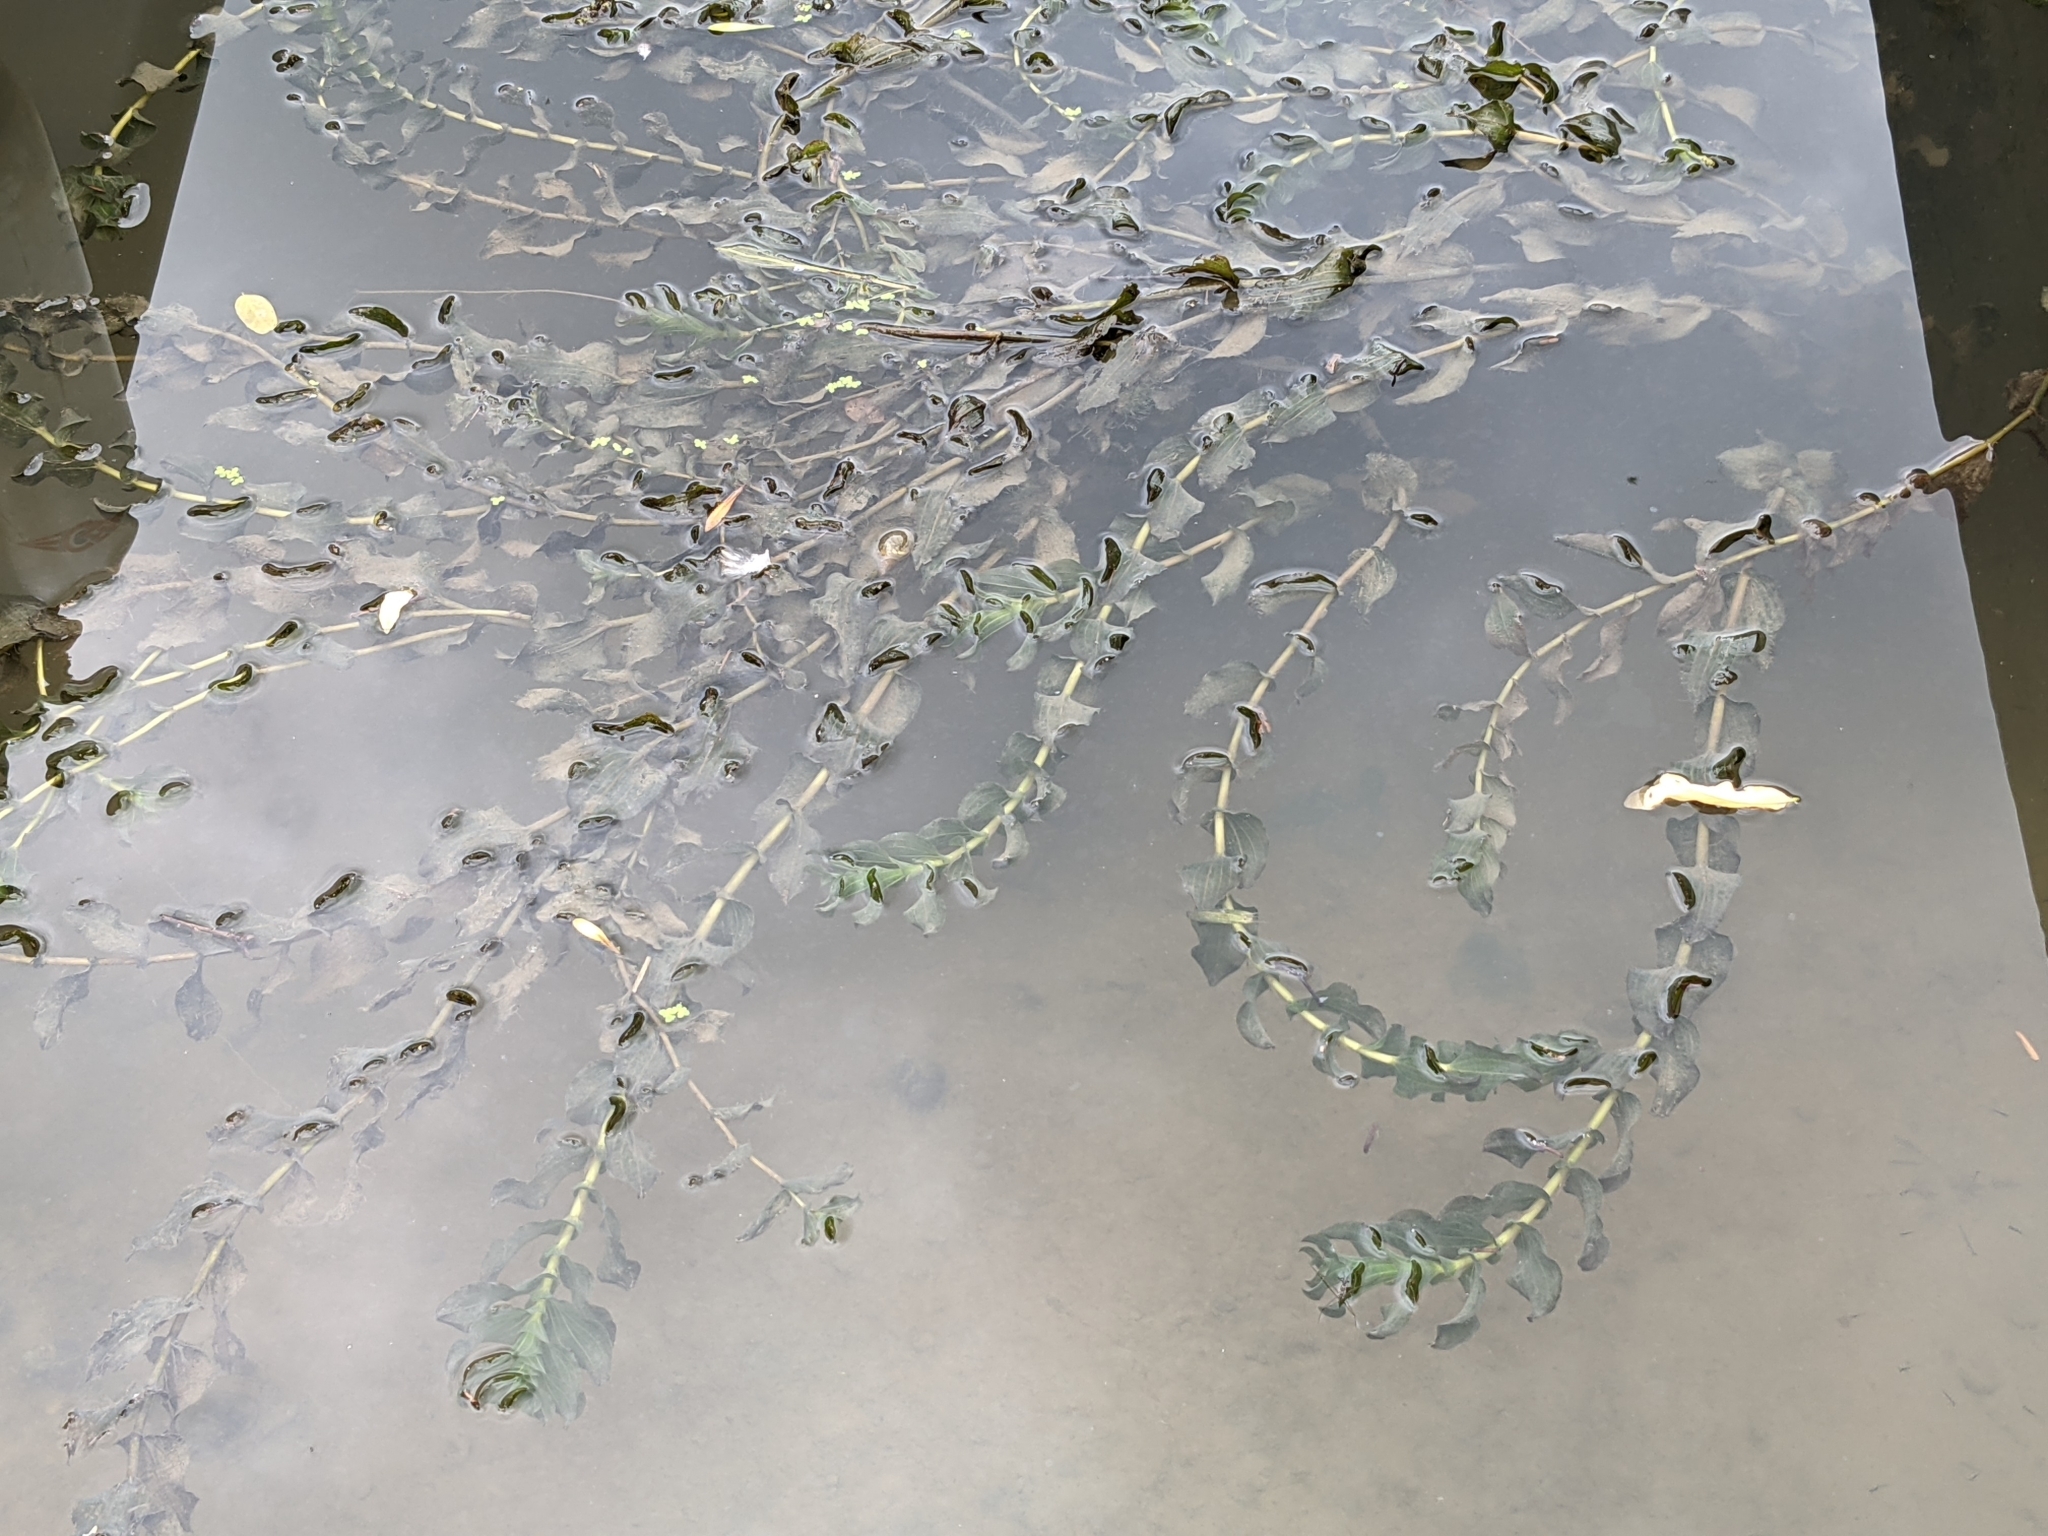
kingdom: Plantae
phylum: Tracheophyta
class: Liliopsida
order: Alismatales
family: Potamogetonaceae
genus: Potamogeton
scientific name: Potamogeton perfoliatus
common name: Perfoliate pondweed
